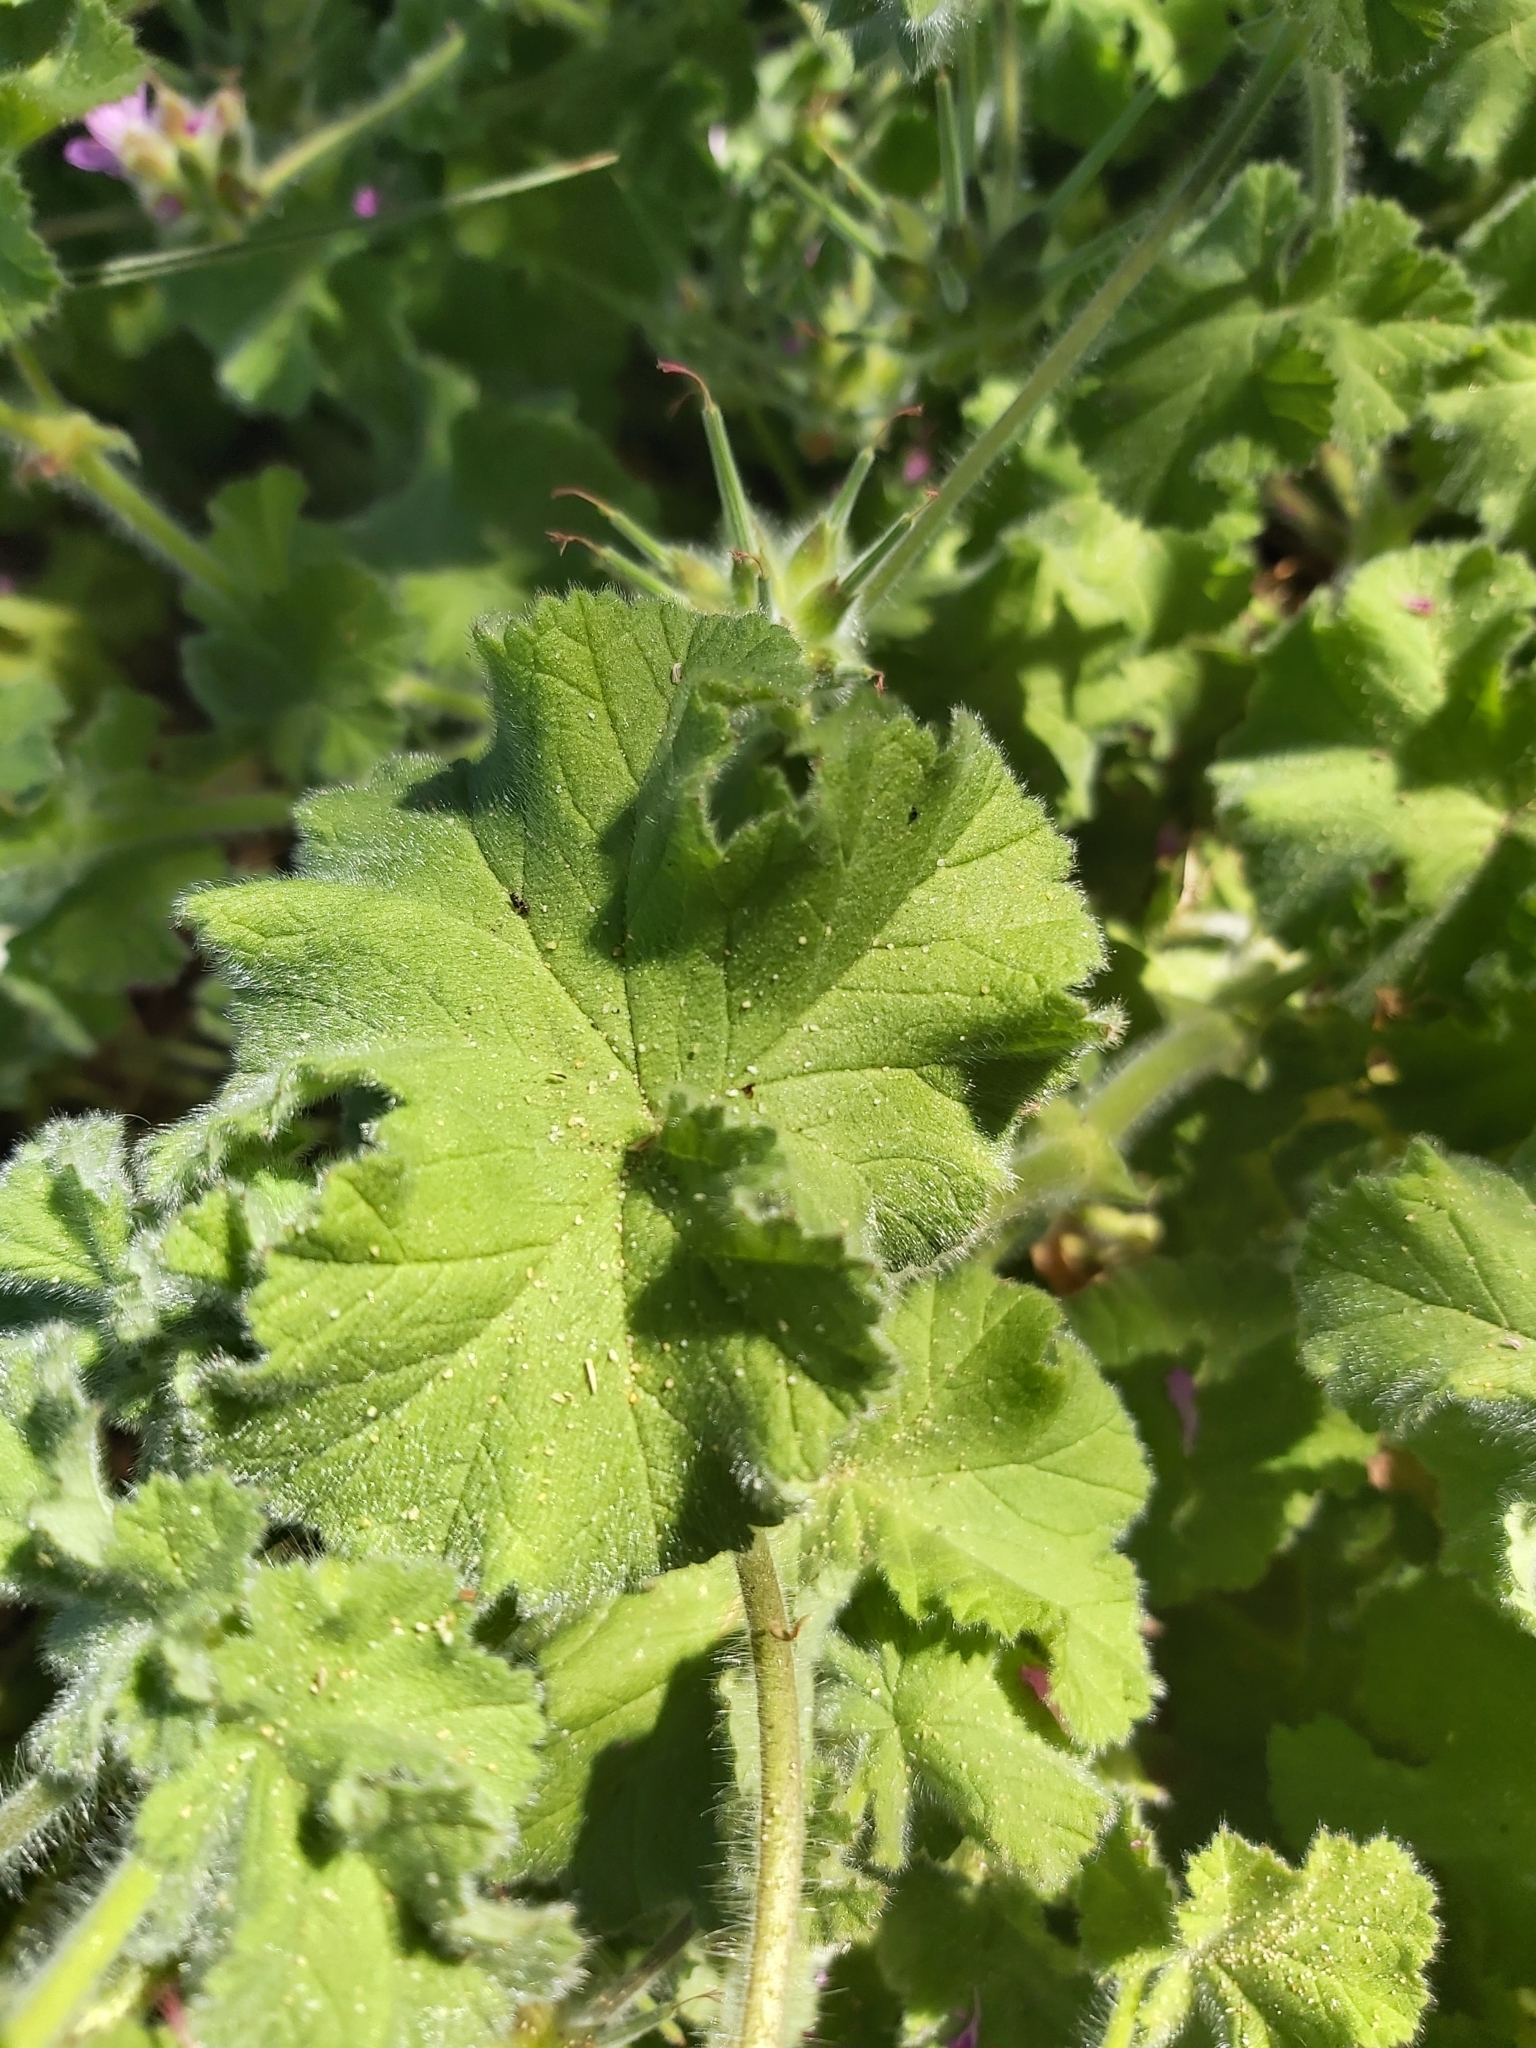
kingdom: Plantae
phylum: Tracheophyta
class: Magnoliopsida
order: Geraniales
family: Geraniaceae
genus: Pelargonium
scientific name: Pelargonium capitatum
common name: Rose scented geranium
